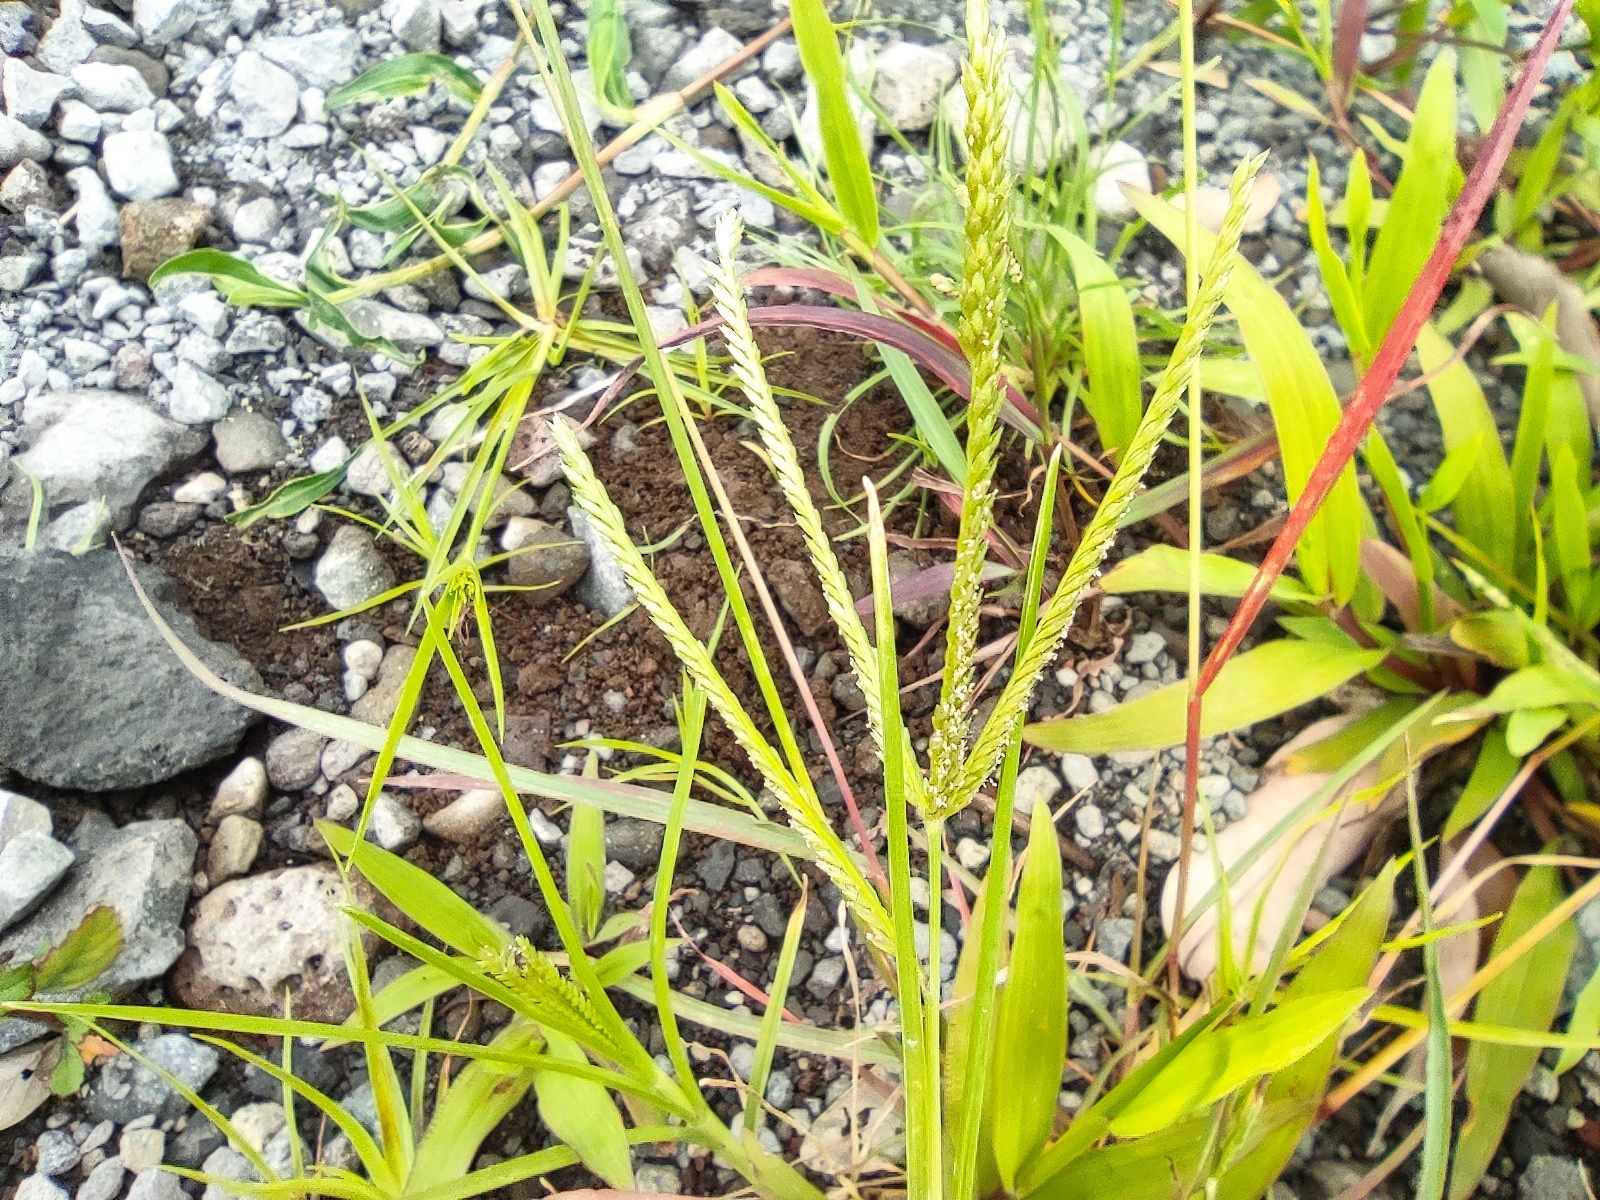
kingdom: Plantae
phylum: Tracheophyta
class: Liliopsida
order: Poales
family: Poaceae
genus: Eleusine
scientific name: Eleusine indica
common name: Yard-grass
